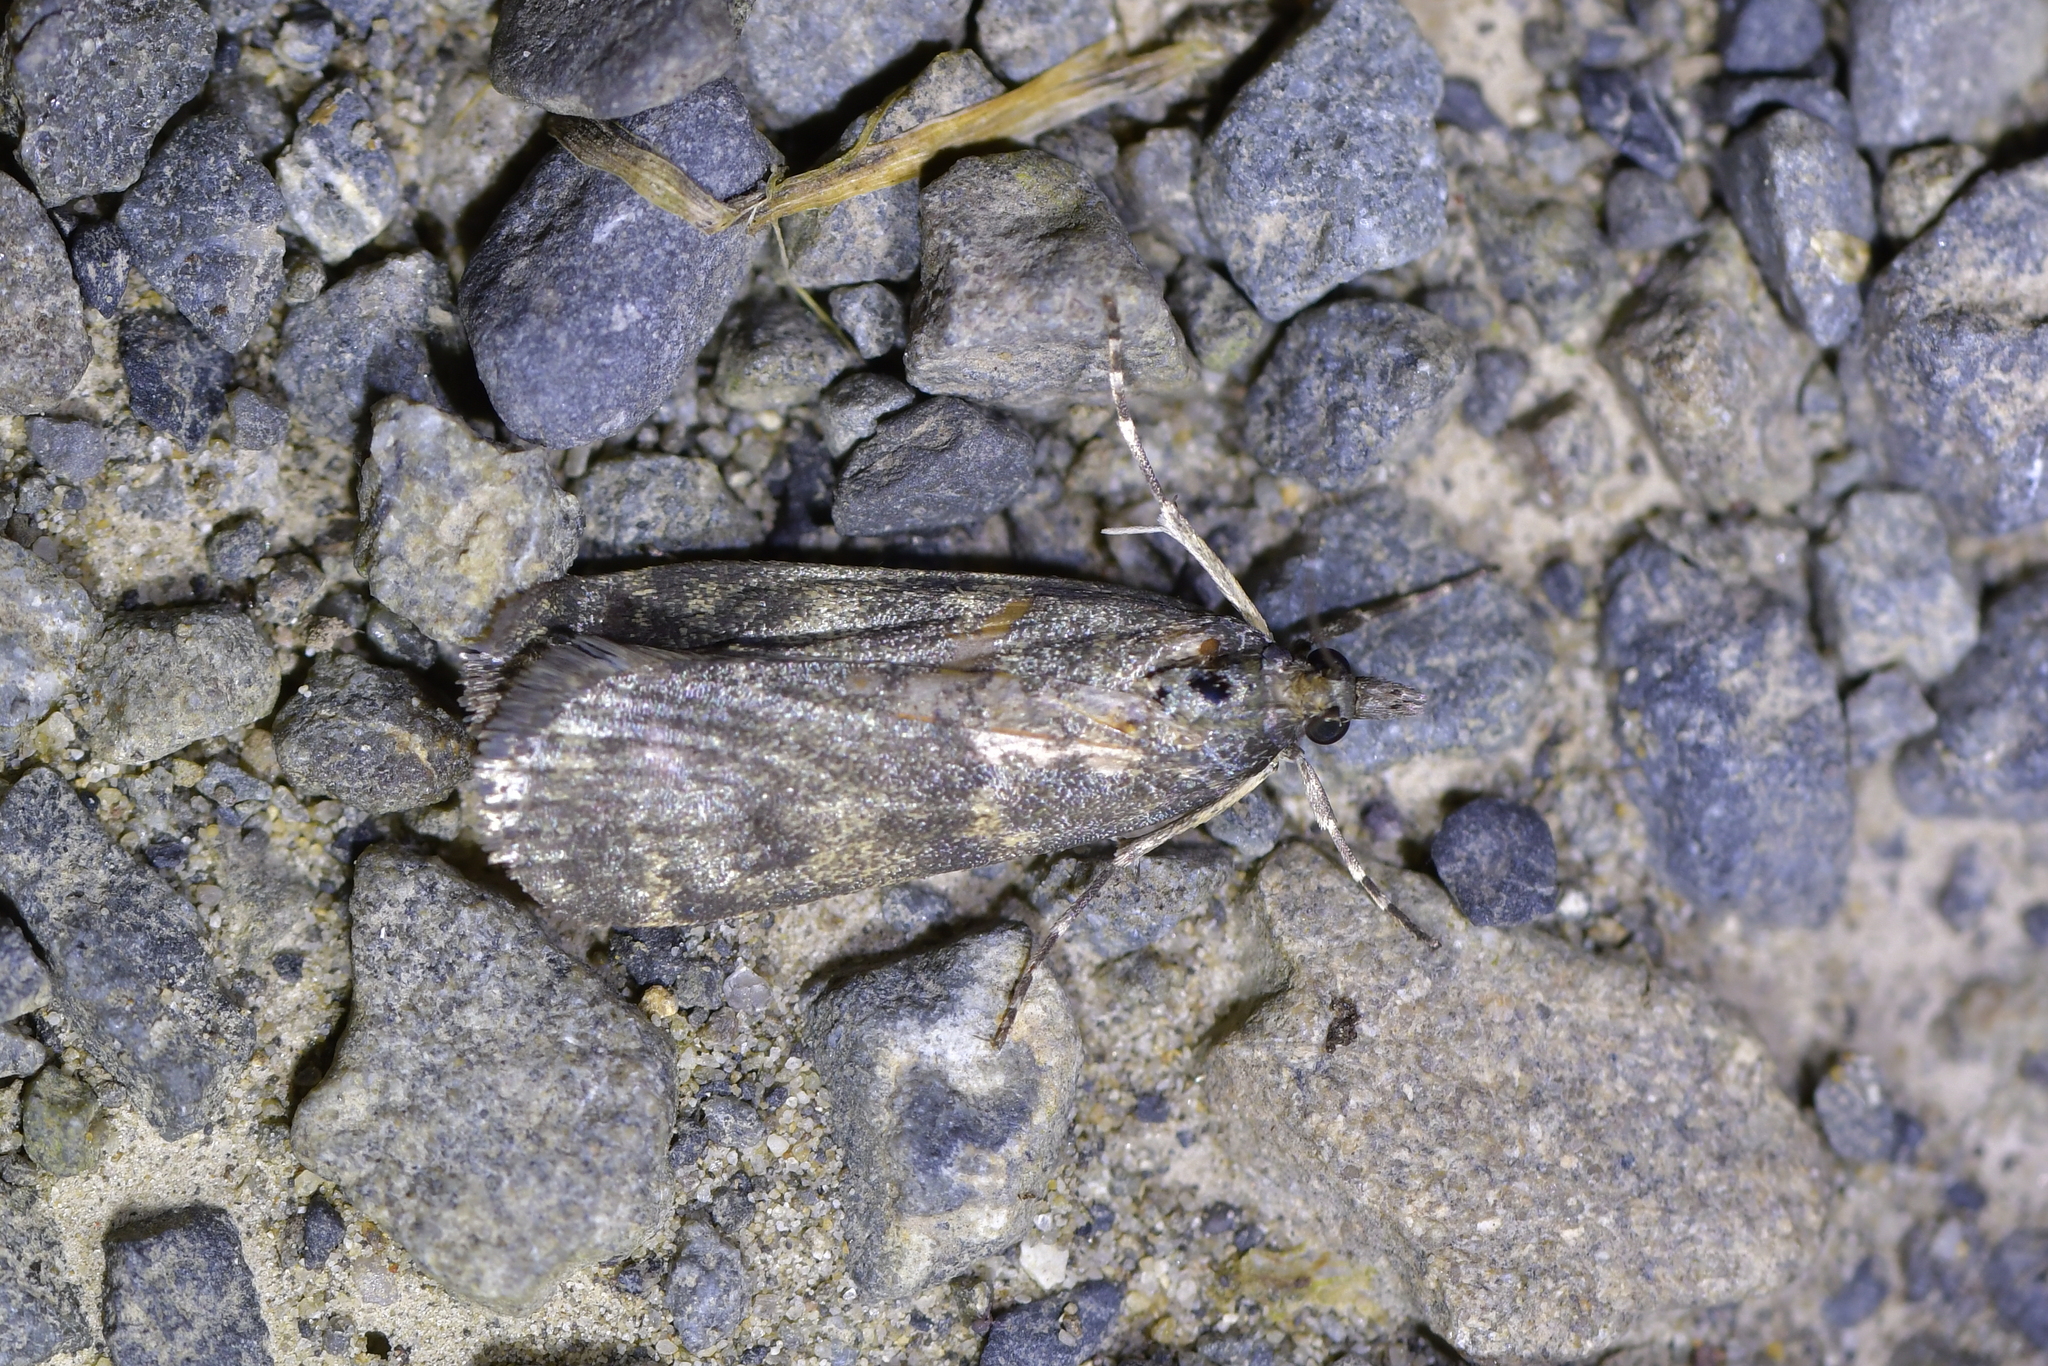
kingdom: Animalia
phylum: Arthropoda
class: Insecta
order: Lepidoptera
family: Crambidae
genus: Eudonia
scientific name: Eudonia cataxesta
